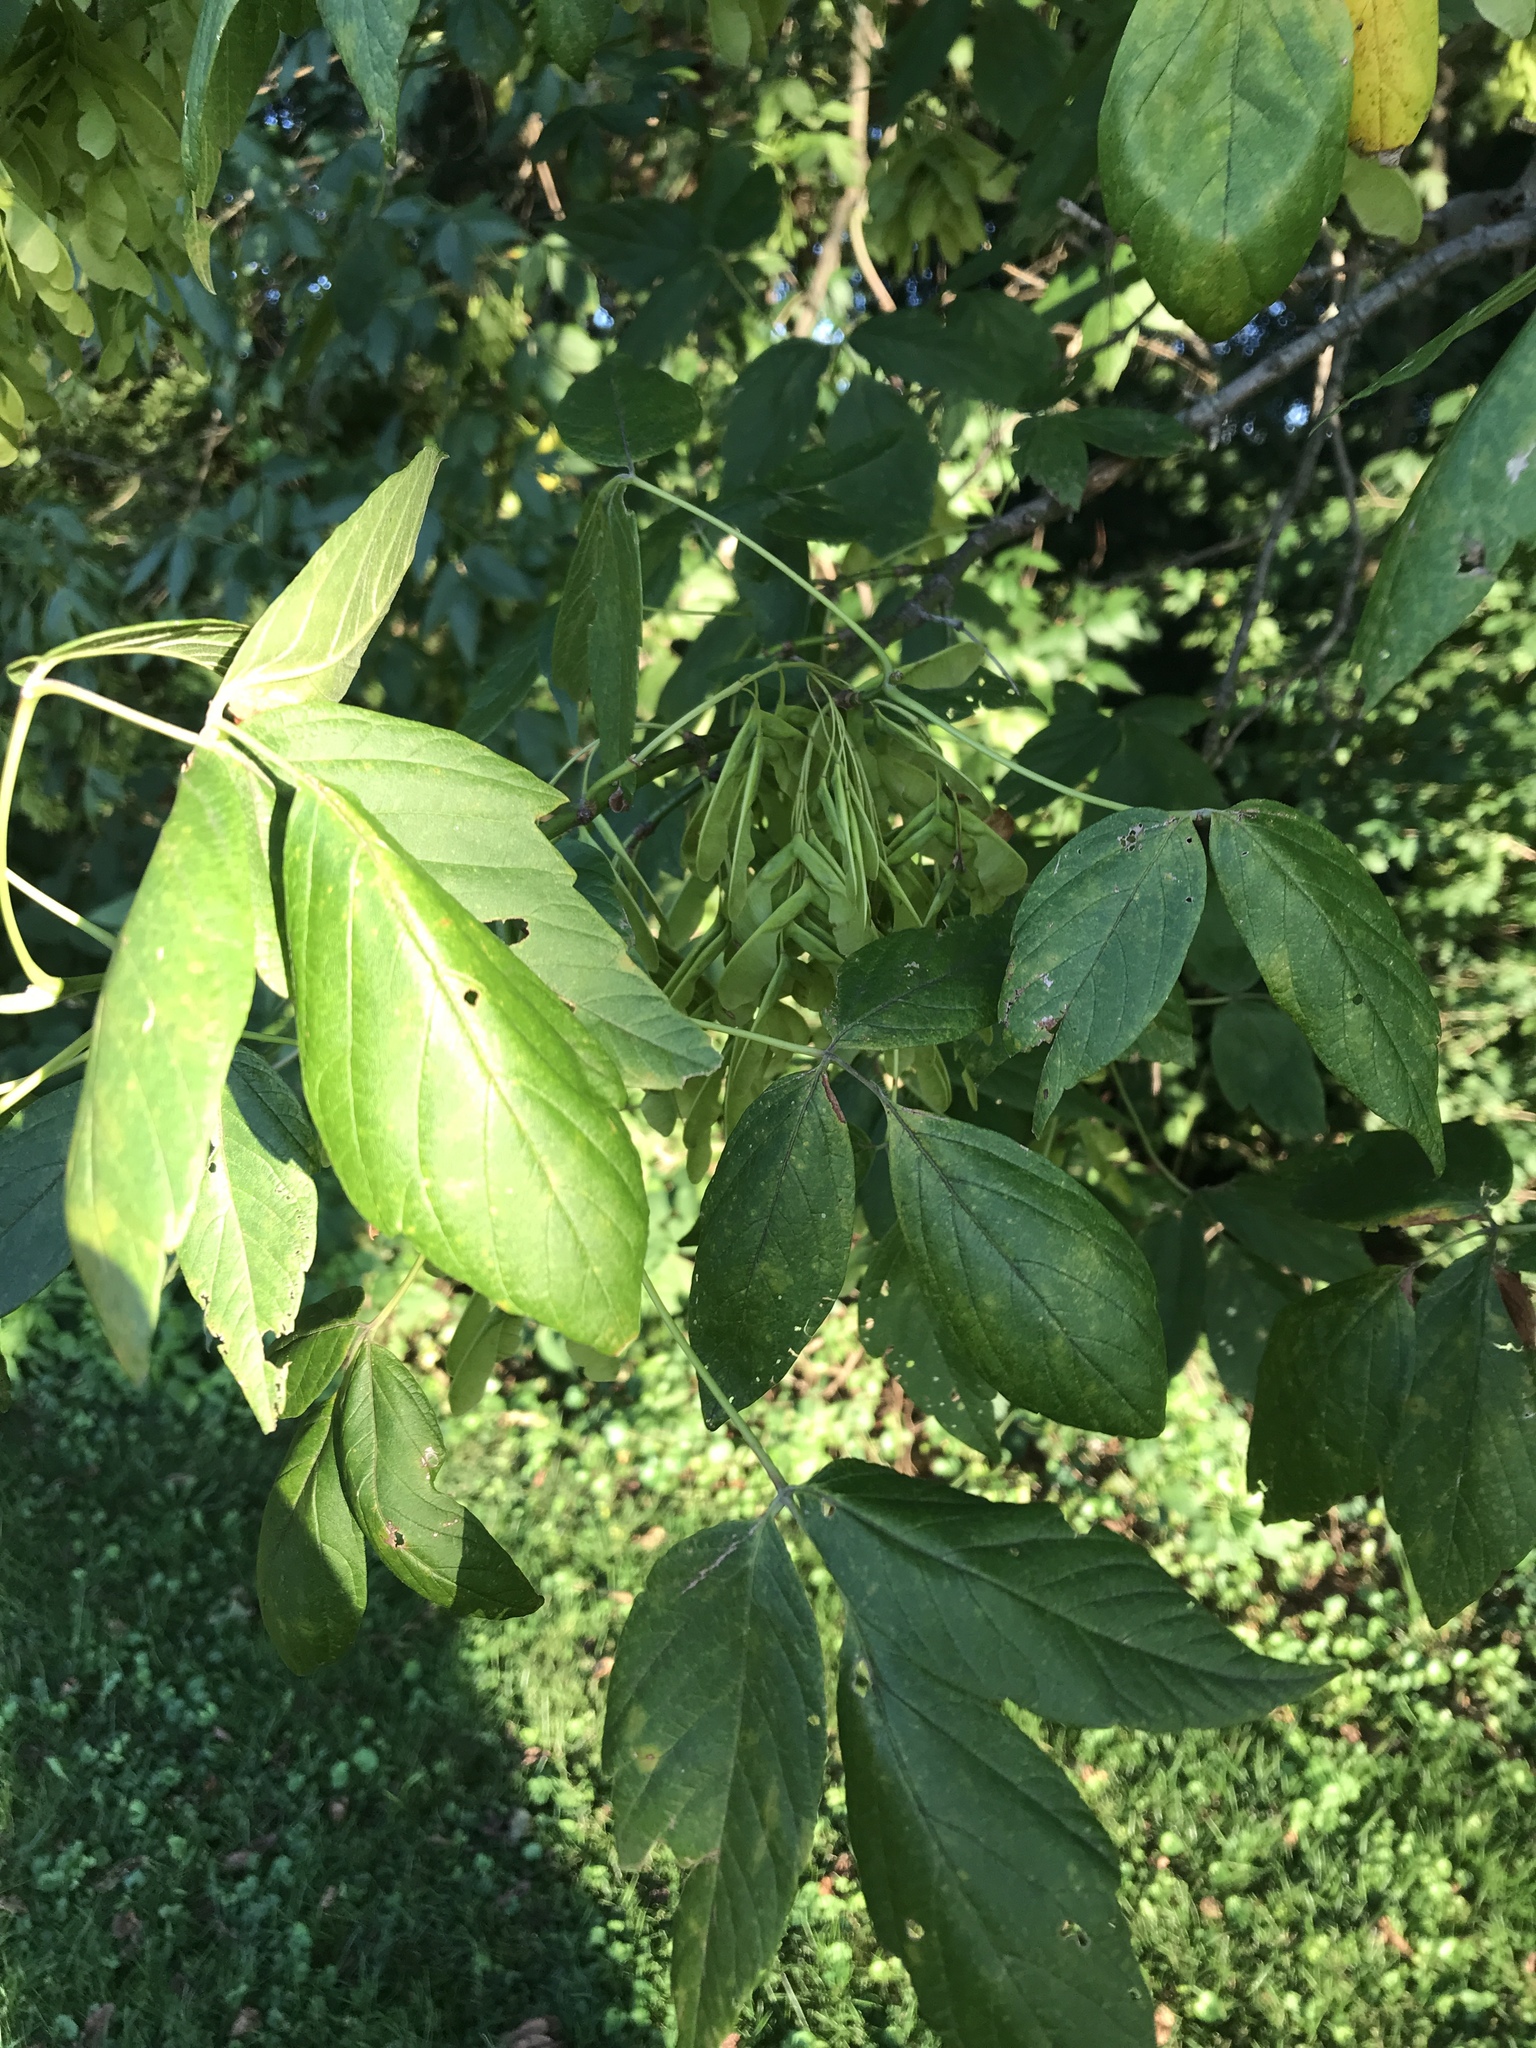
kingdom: Plantae
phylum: Tracheophyta
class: Magnoliopsida
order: Sapindales
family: Sapindaceae
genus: Acer
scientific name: Acer negundo
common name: Ashleaf maple
